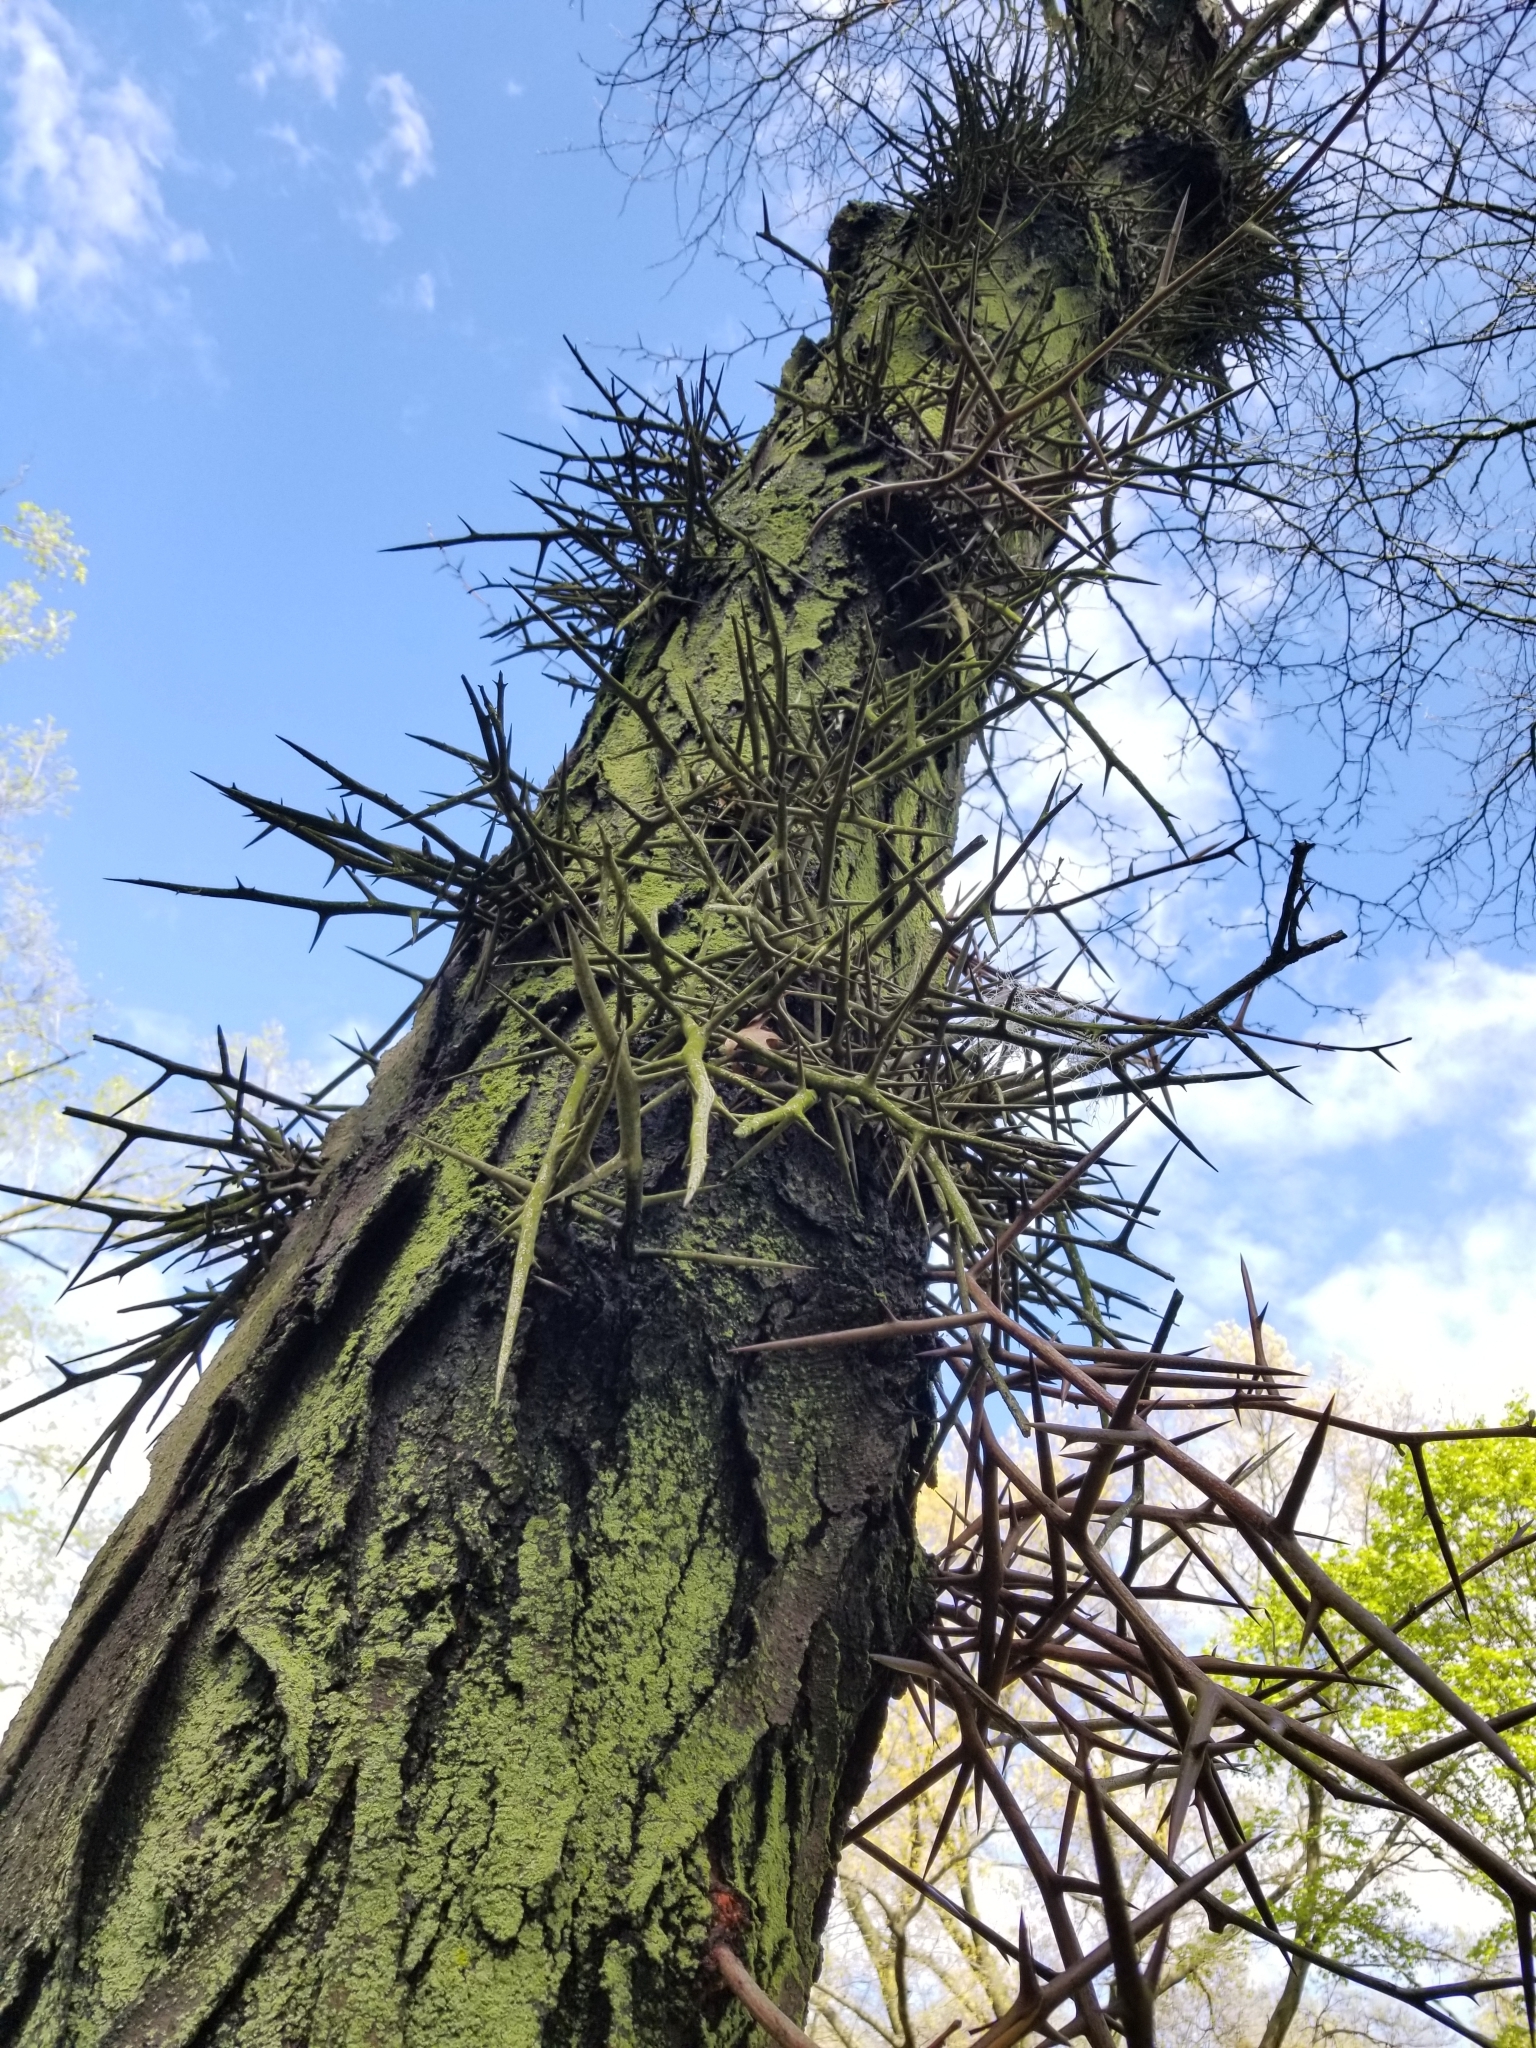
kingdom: Plantae
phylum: Tracheophyta
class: Magnoliopsida
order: Fabales
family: Fabaceae
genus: Gleditsia
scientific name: Gleditsia triacanthos
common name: Common honeylocust
